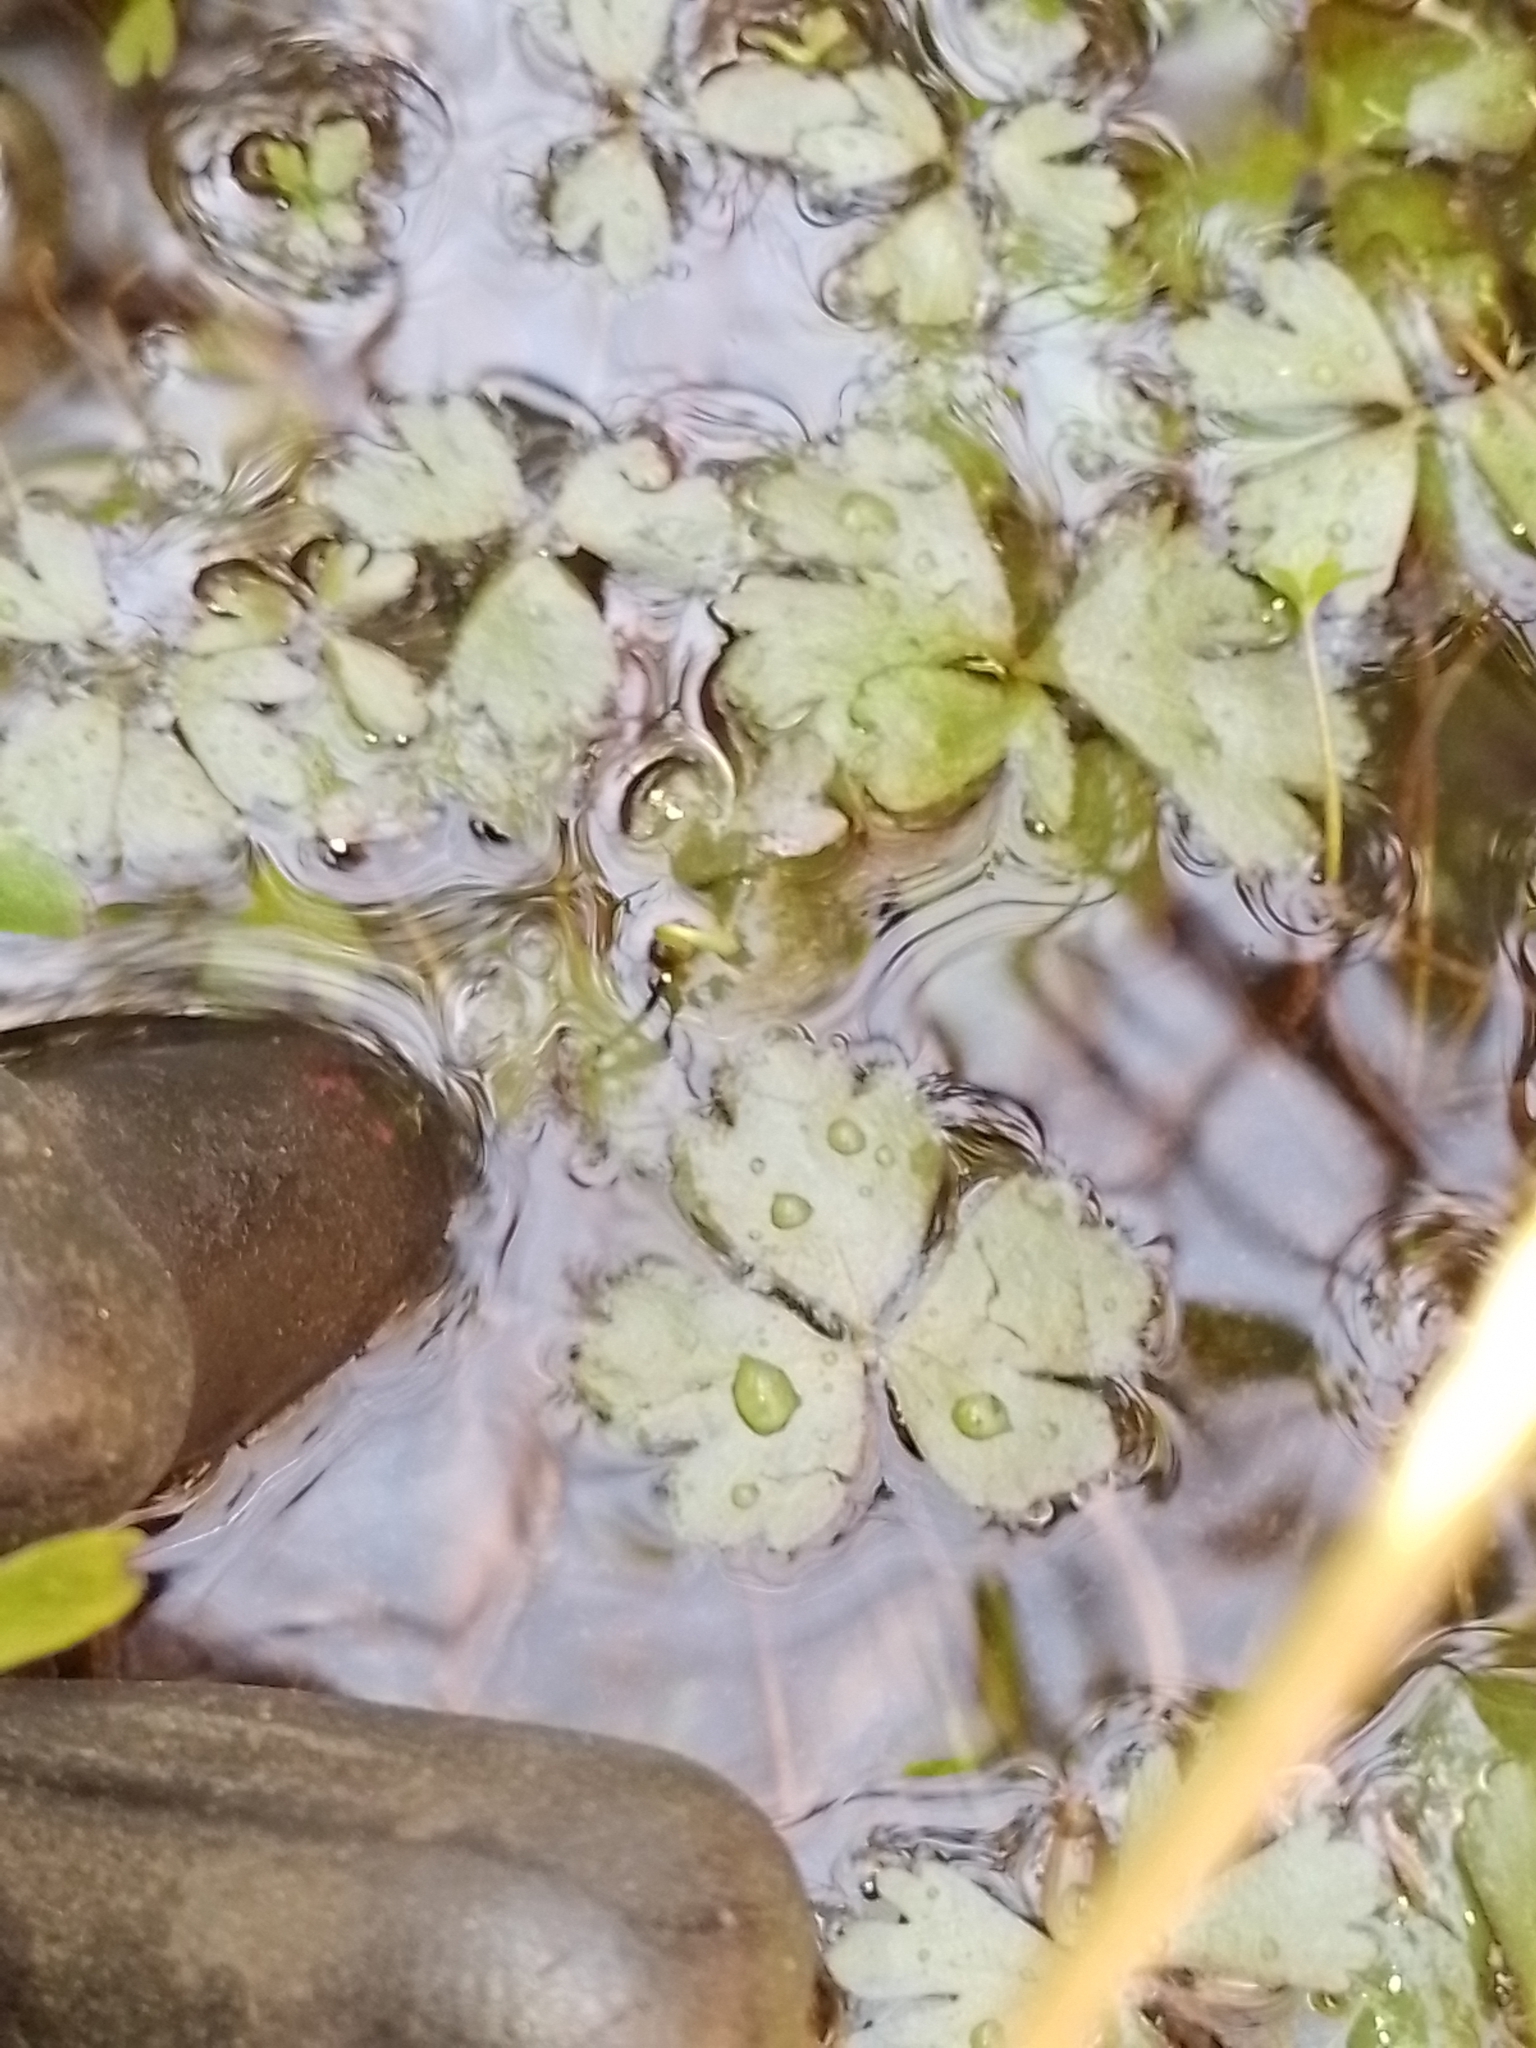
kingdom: Plantae
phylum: Tracheophyta
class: Magnoliopsida
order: Ranunculales
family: Ranunculaceae
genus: Ranunculus
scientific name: Ranunculus macropus
